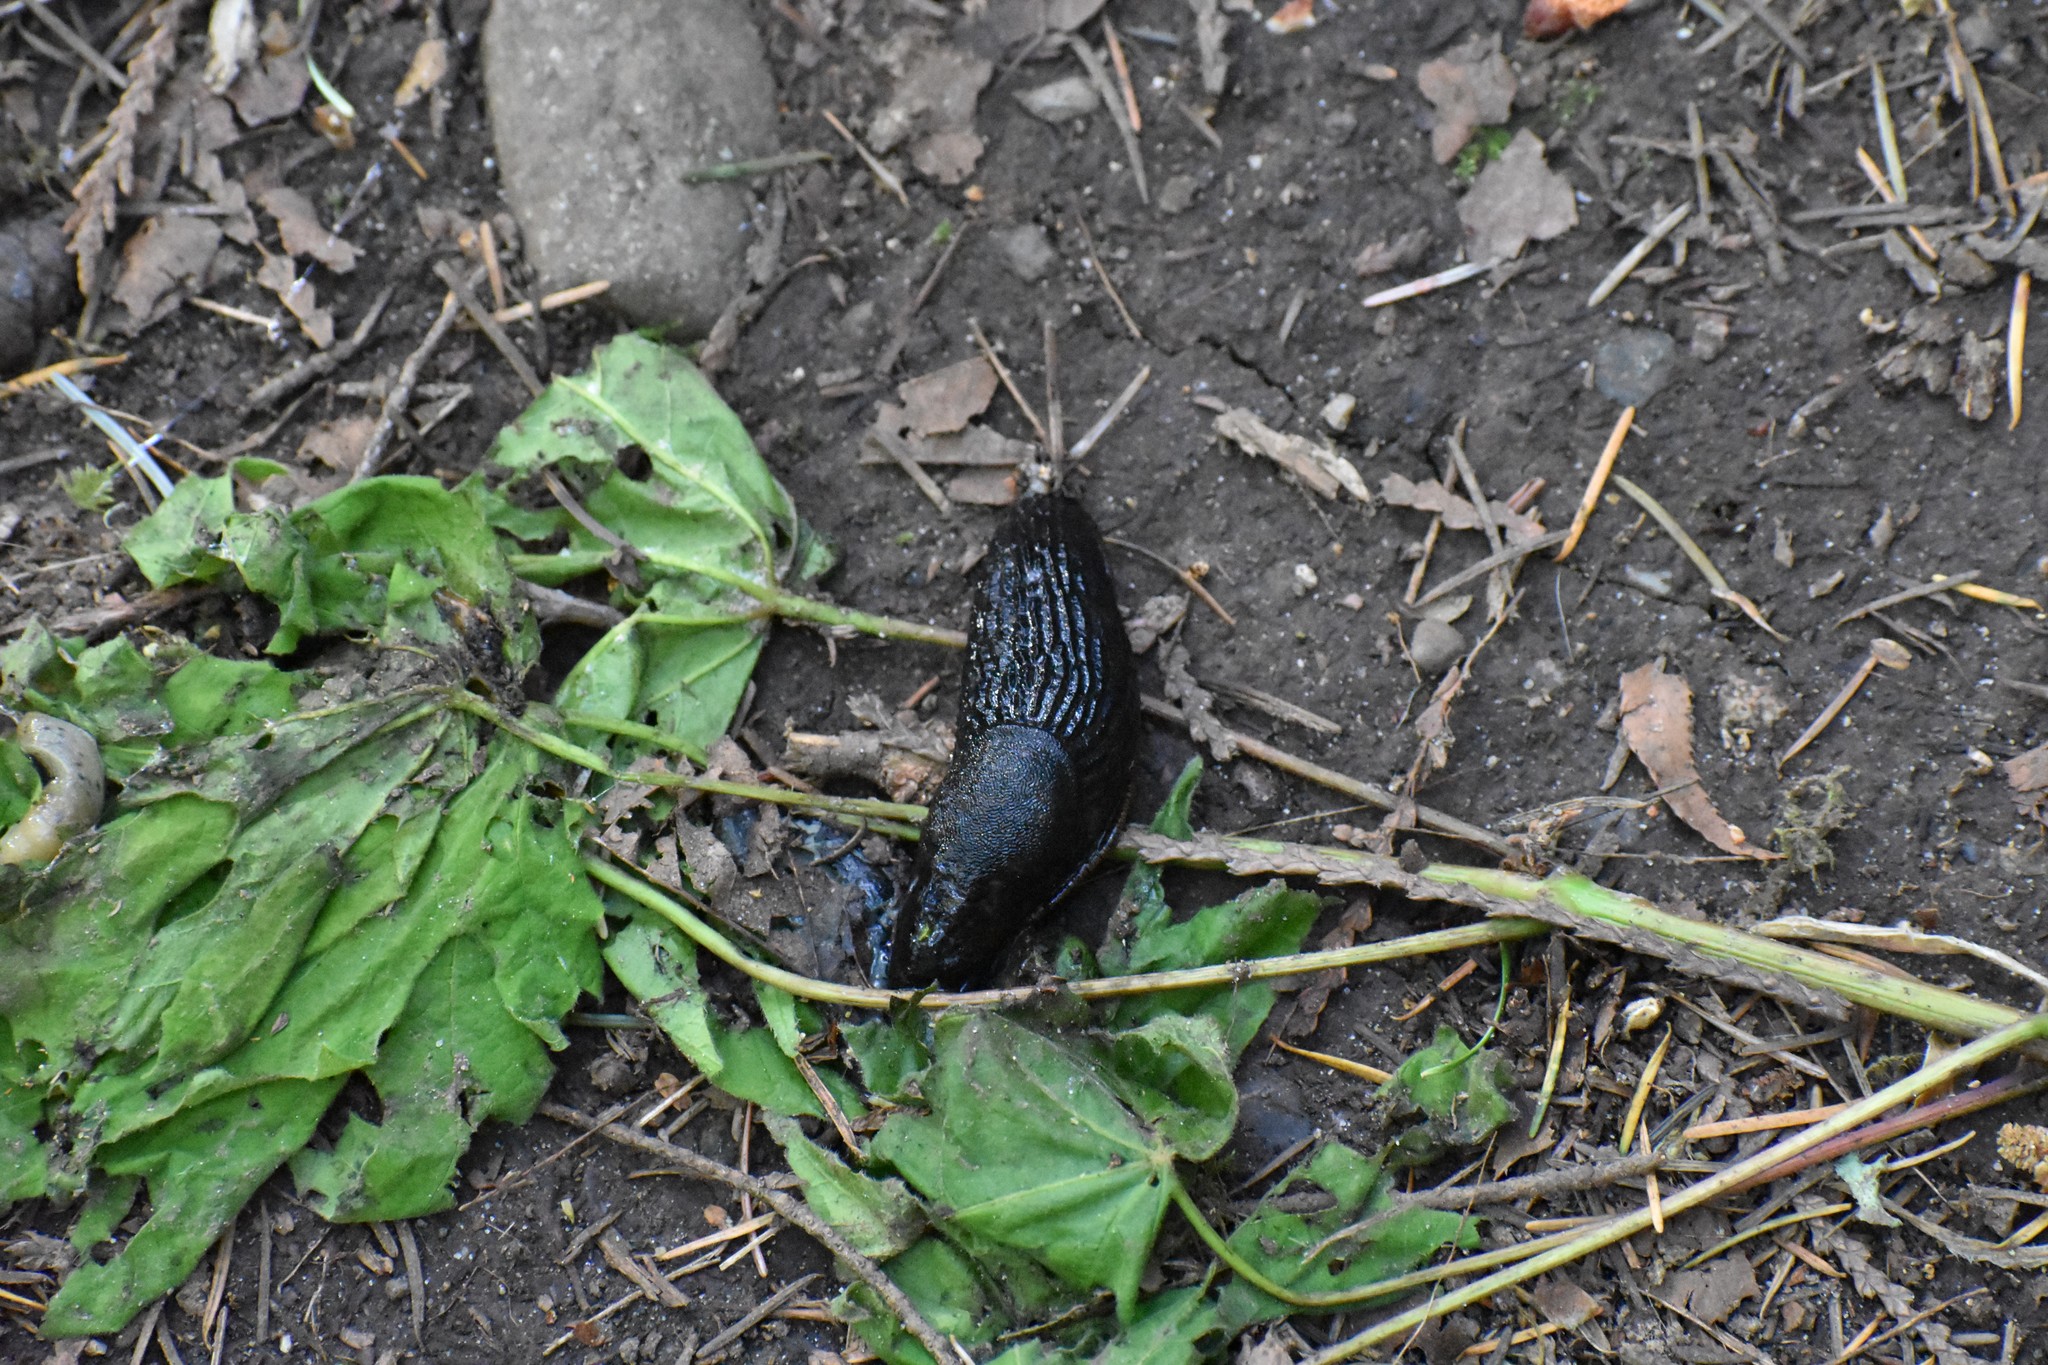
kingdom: Animalia
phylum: Mollusca
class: Gastropoda
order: Stylommatophora
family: Arionidae
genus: Arion
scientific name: Arion
